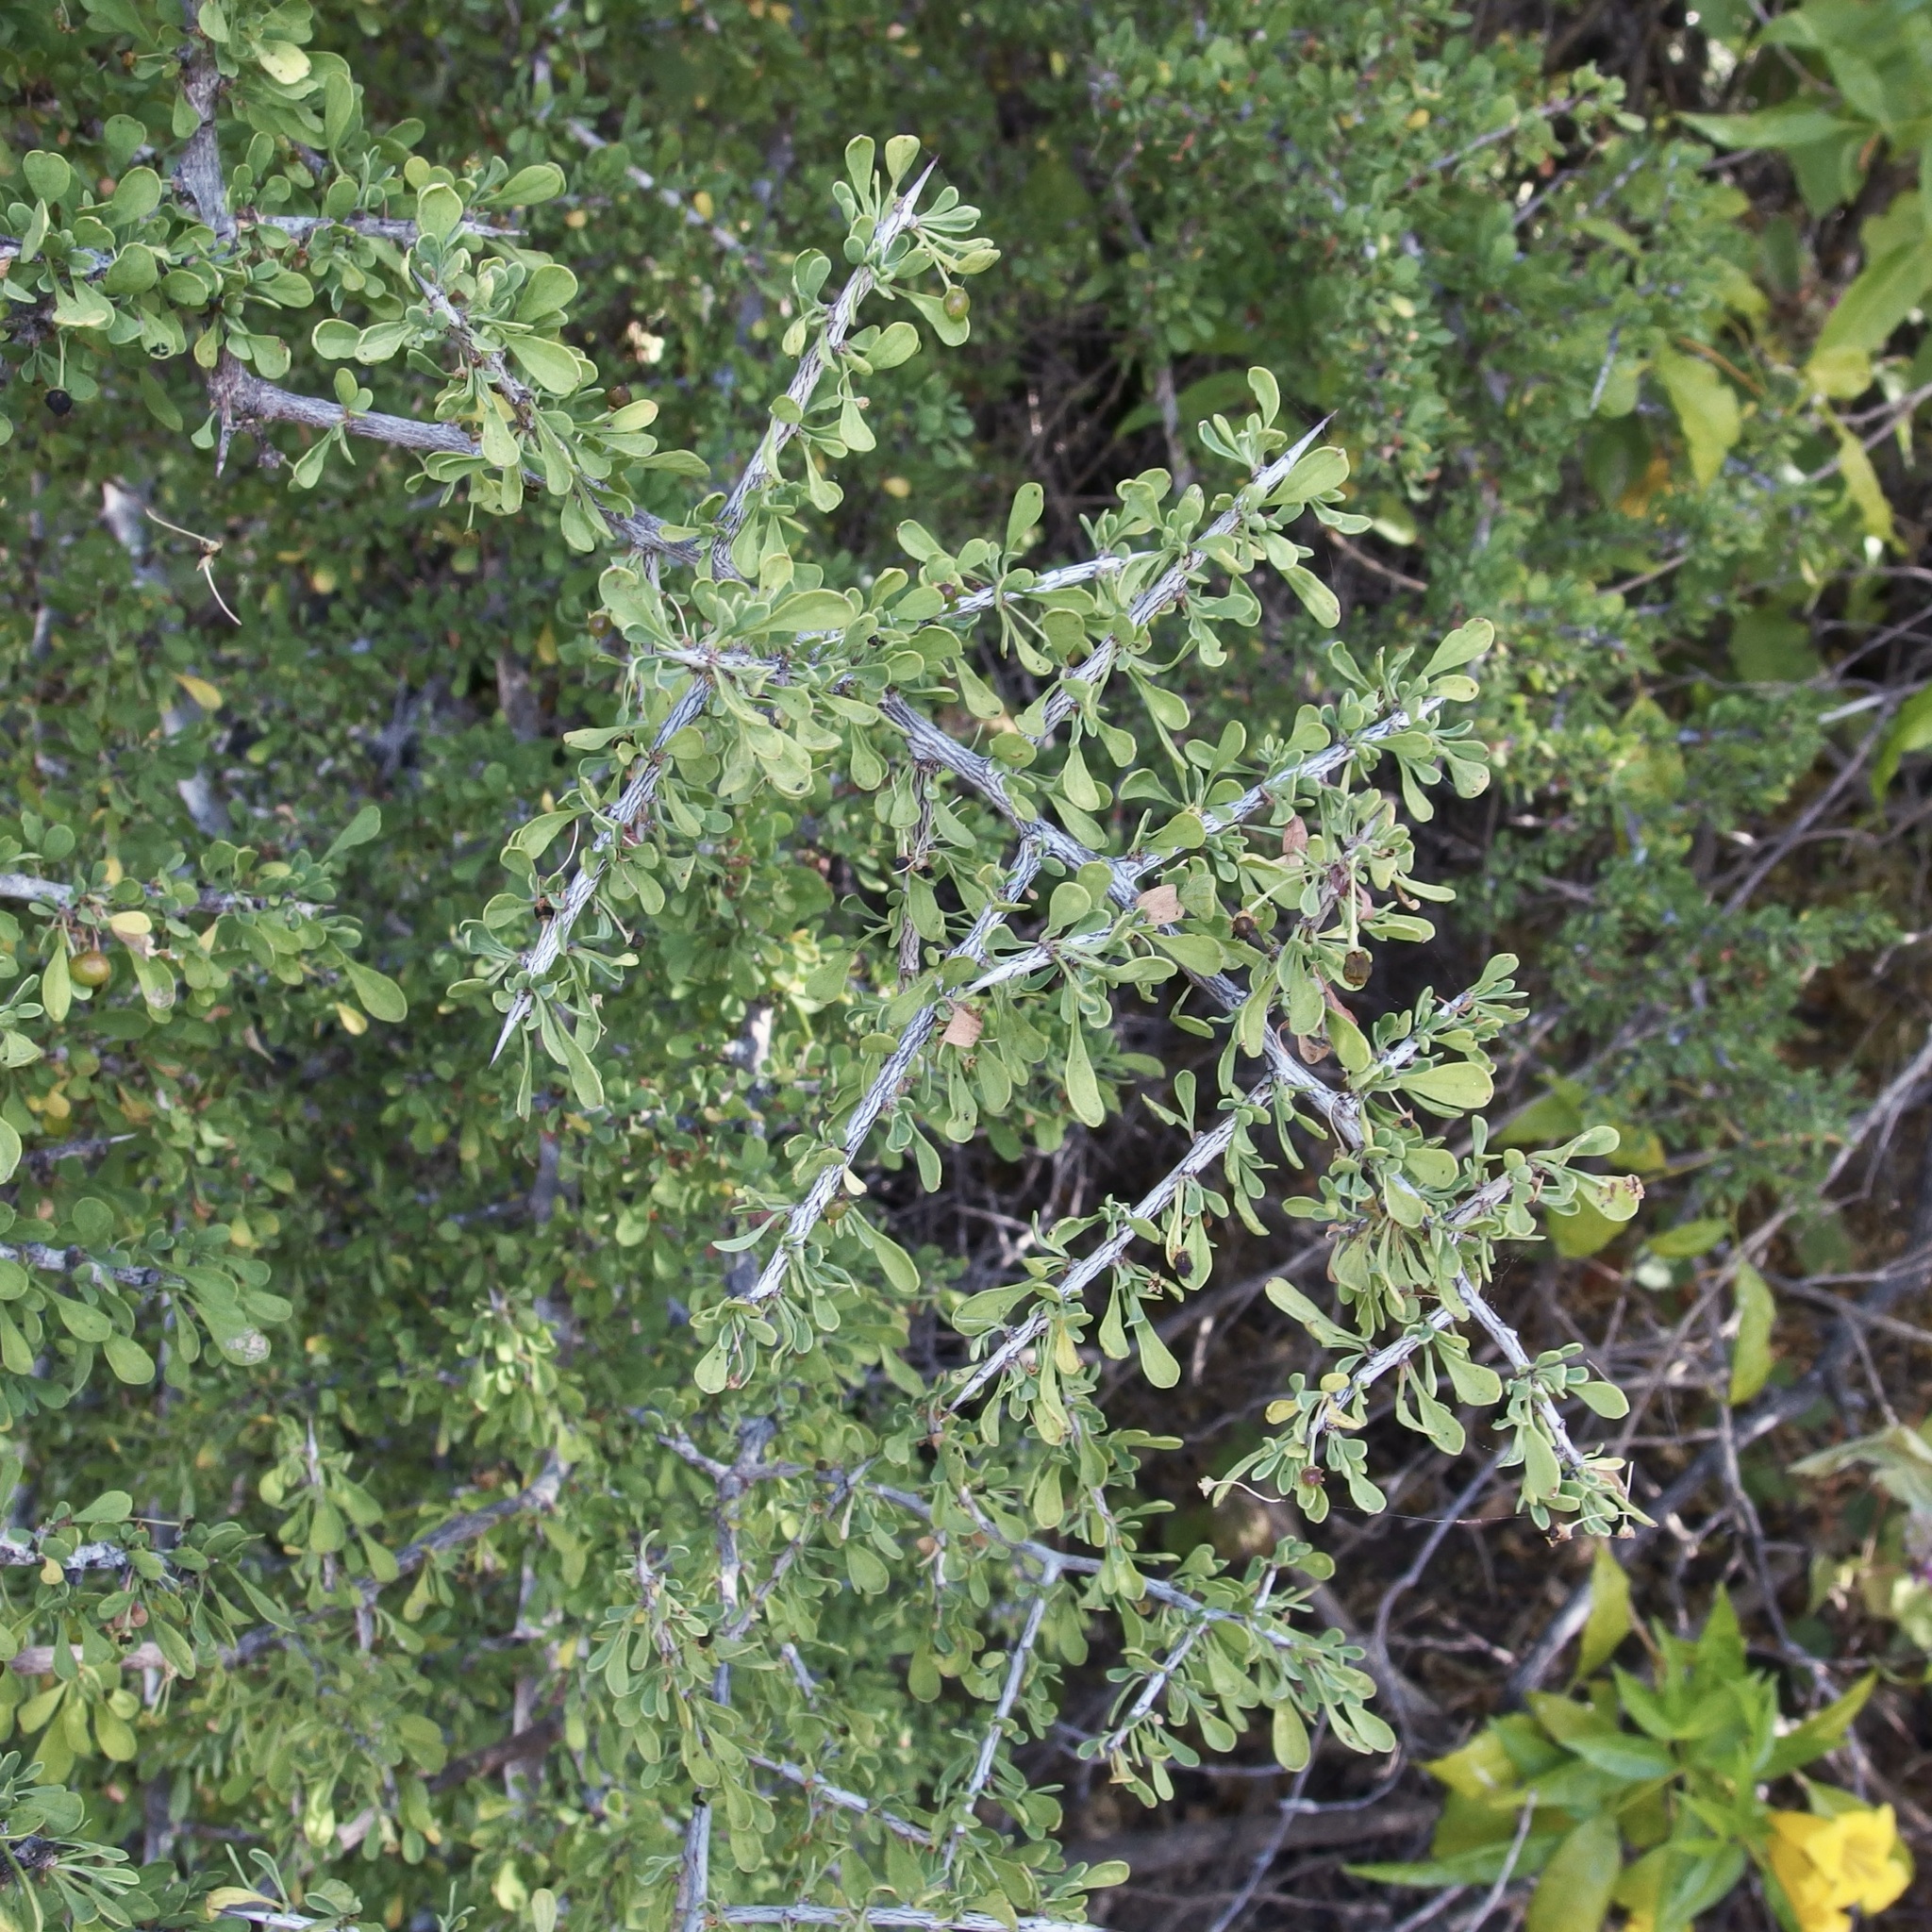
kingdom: Plantae
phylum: Tracheophyta
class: Magnoliopsida
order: Rosales
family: Rhamnaceae
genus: Condalia
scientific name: Condalia globosa
